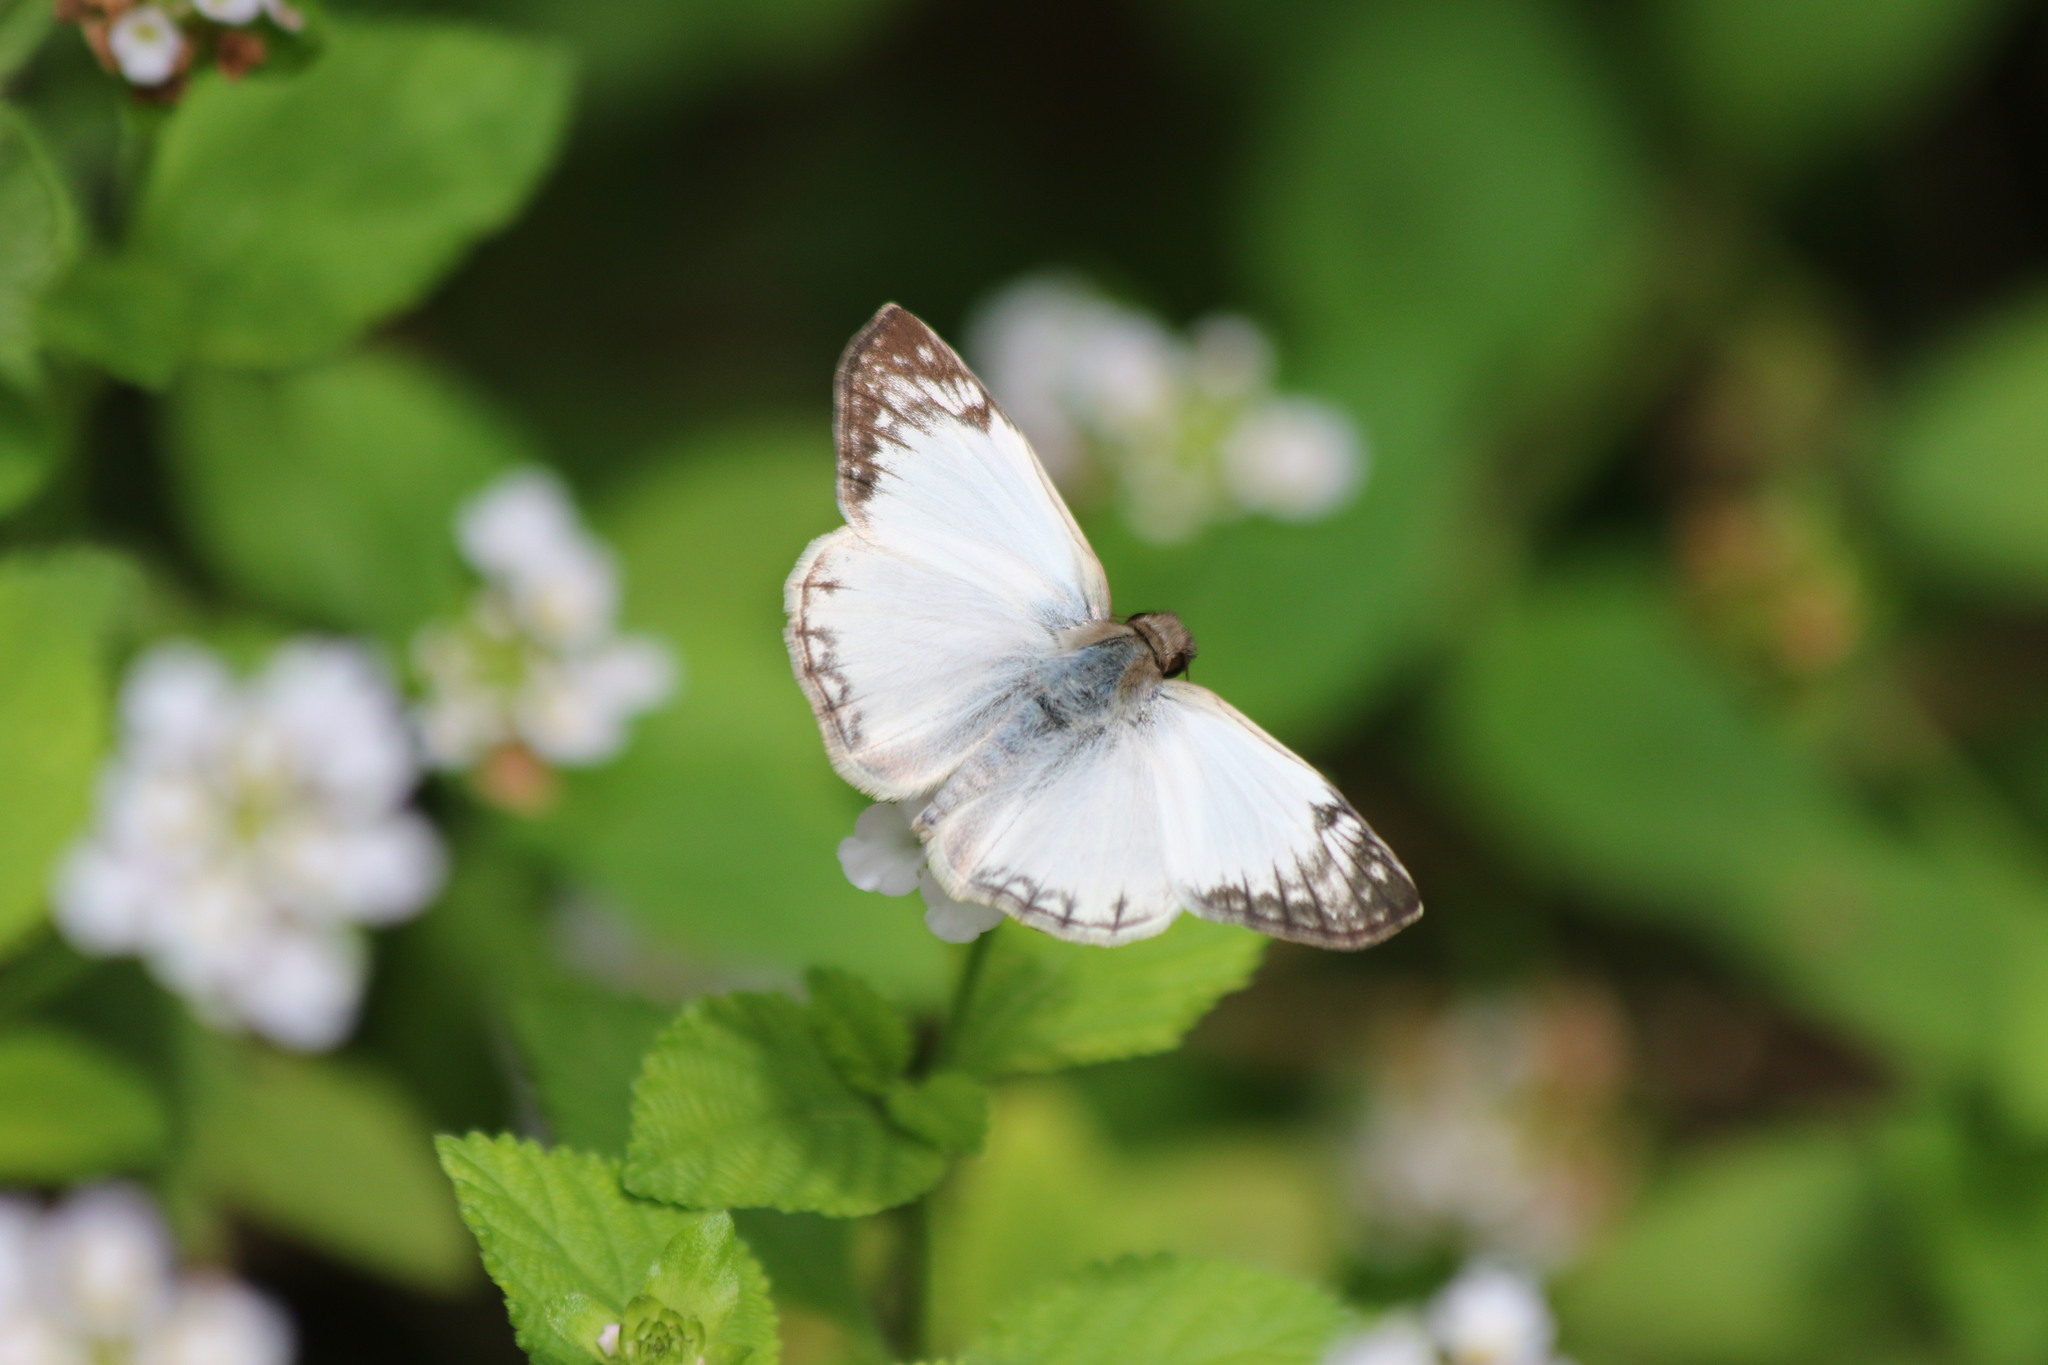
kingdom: Animalia
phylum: Arthropoda
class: Insecta
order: Lepidoptera
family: Hesperiidae
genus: Heliopetes
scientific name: Heliopetes laviana
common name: Laviana white-skipper
